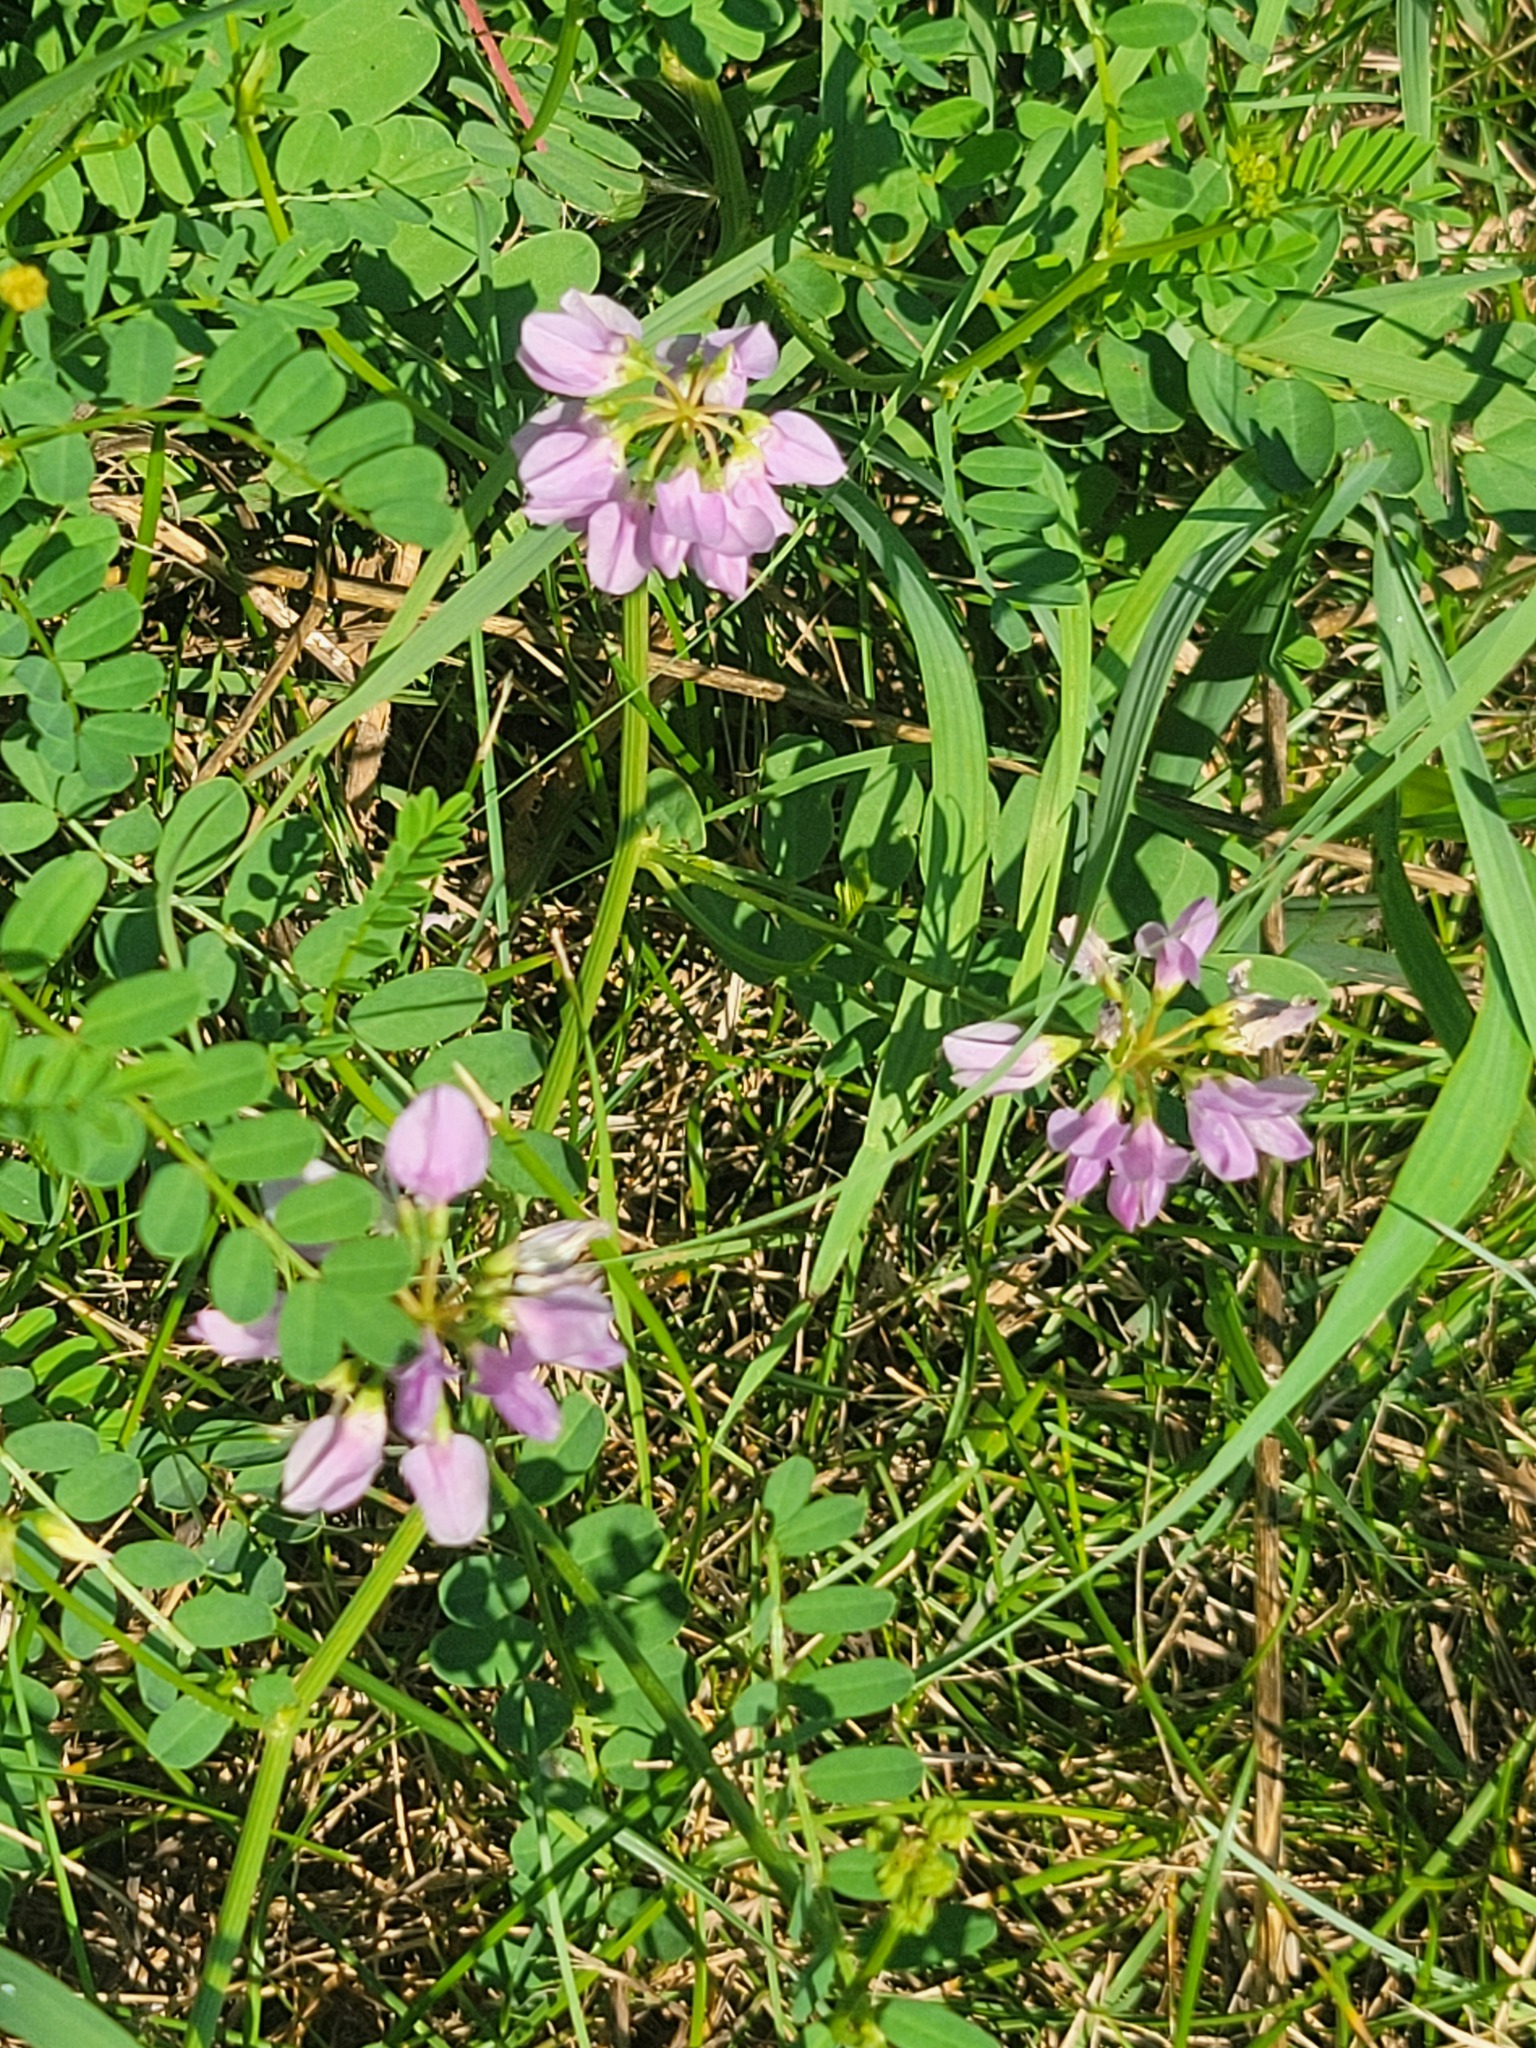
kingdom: Plantae
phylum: Tracheophyta
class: Magnoliopsida
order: Fabales
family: Fabaceae
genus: Coronilla
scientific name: Coronilla varia
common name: Crownvetch
